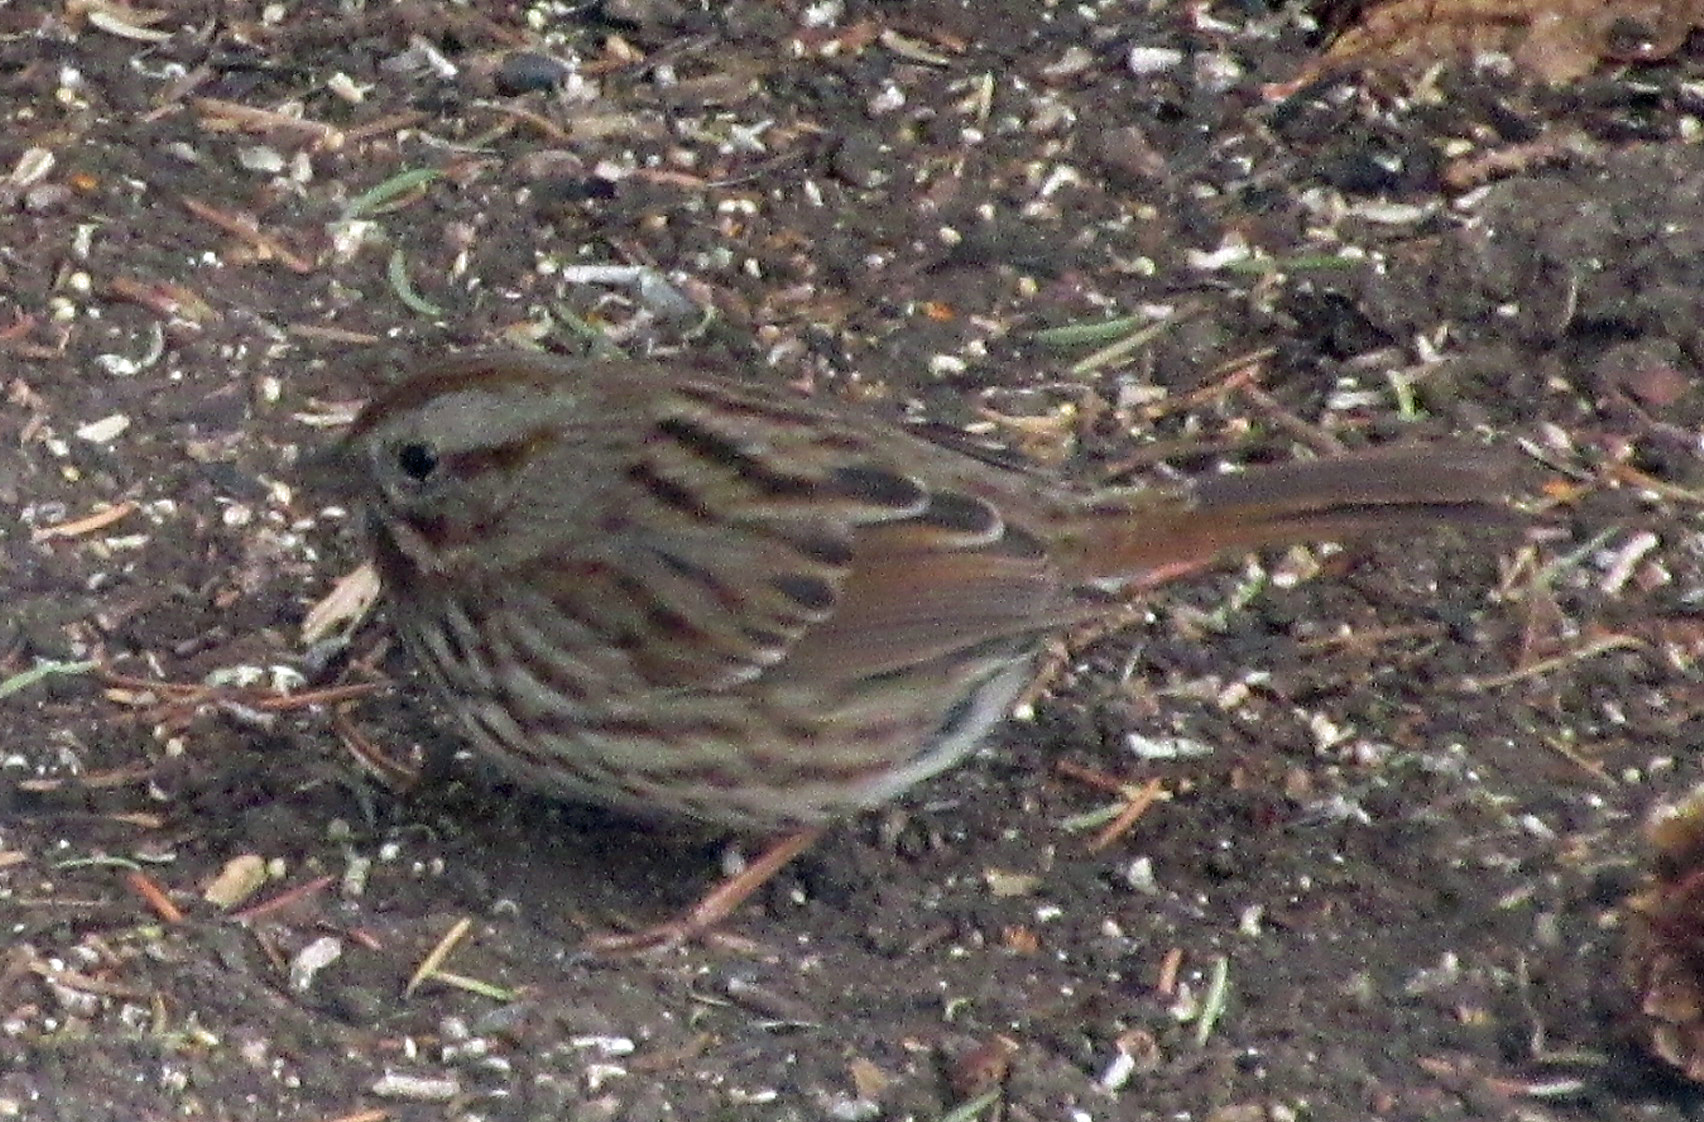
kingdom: Animalia
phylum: Chordata
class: Aves
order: Passeriformes
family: Passerellidae
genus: Melospiza
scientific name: Melospiza melodia
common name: Song sparrow
